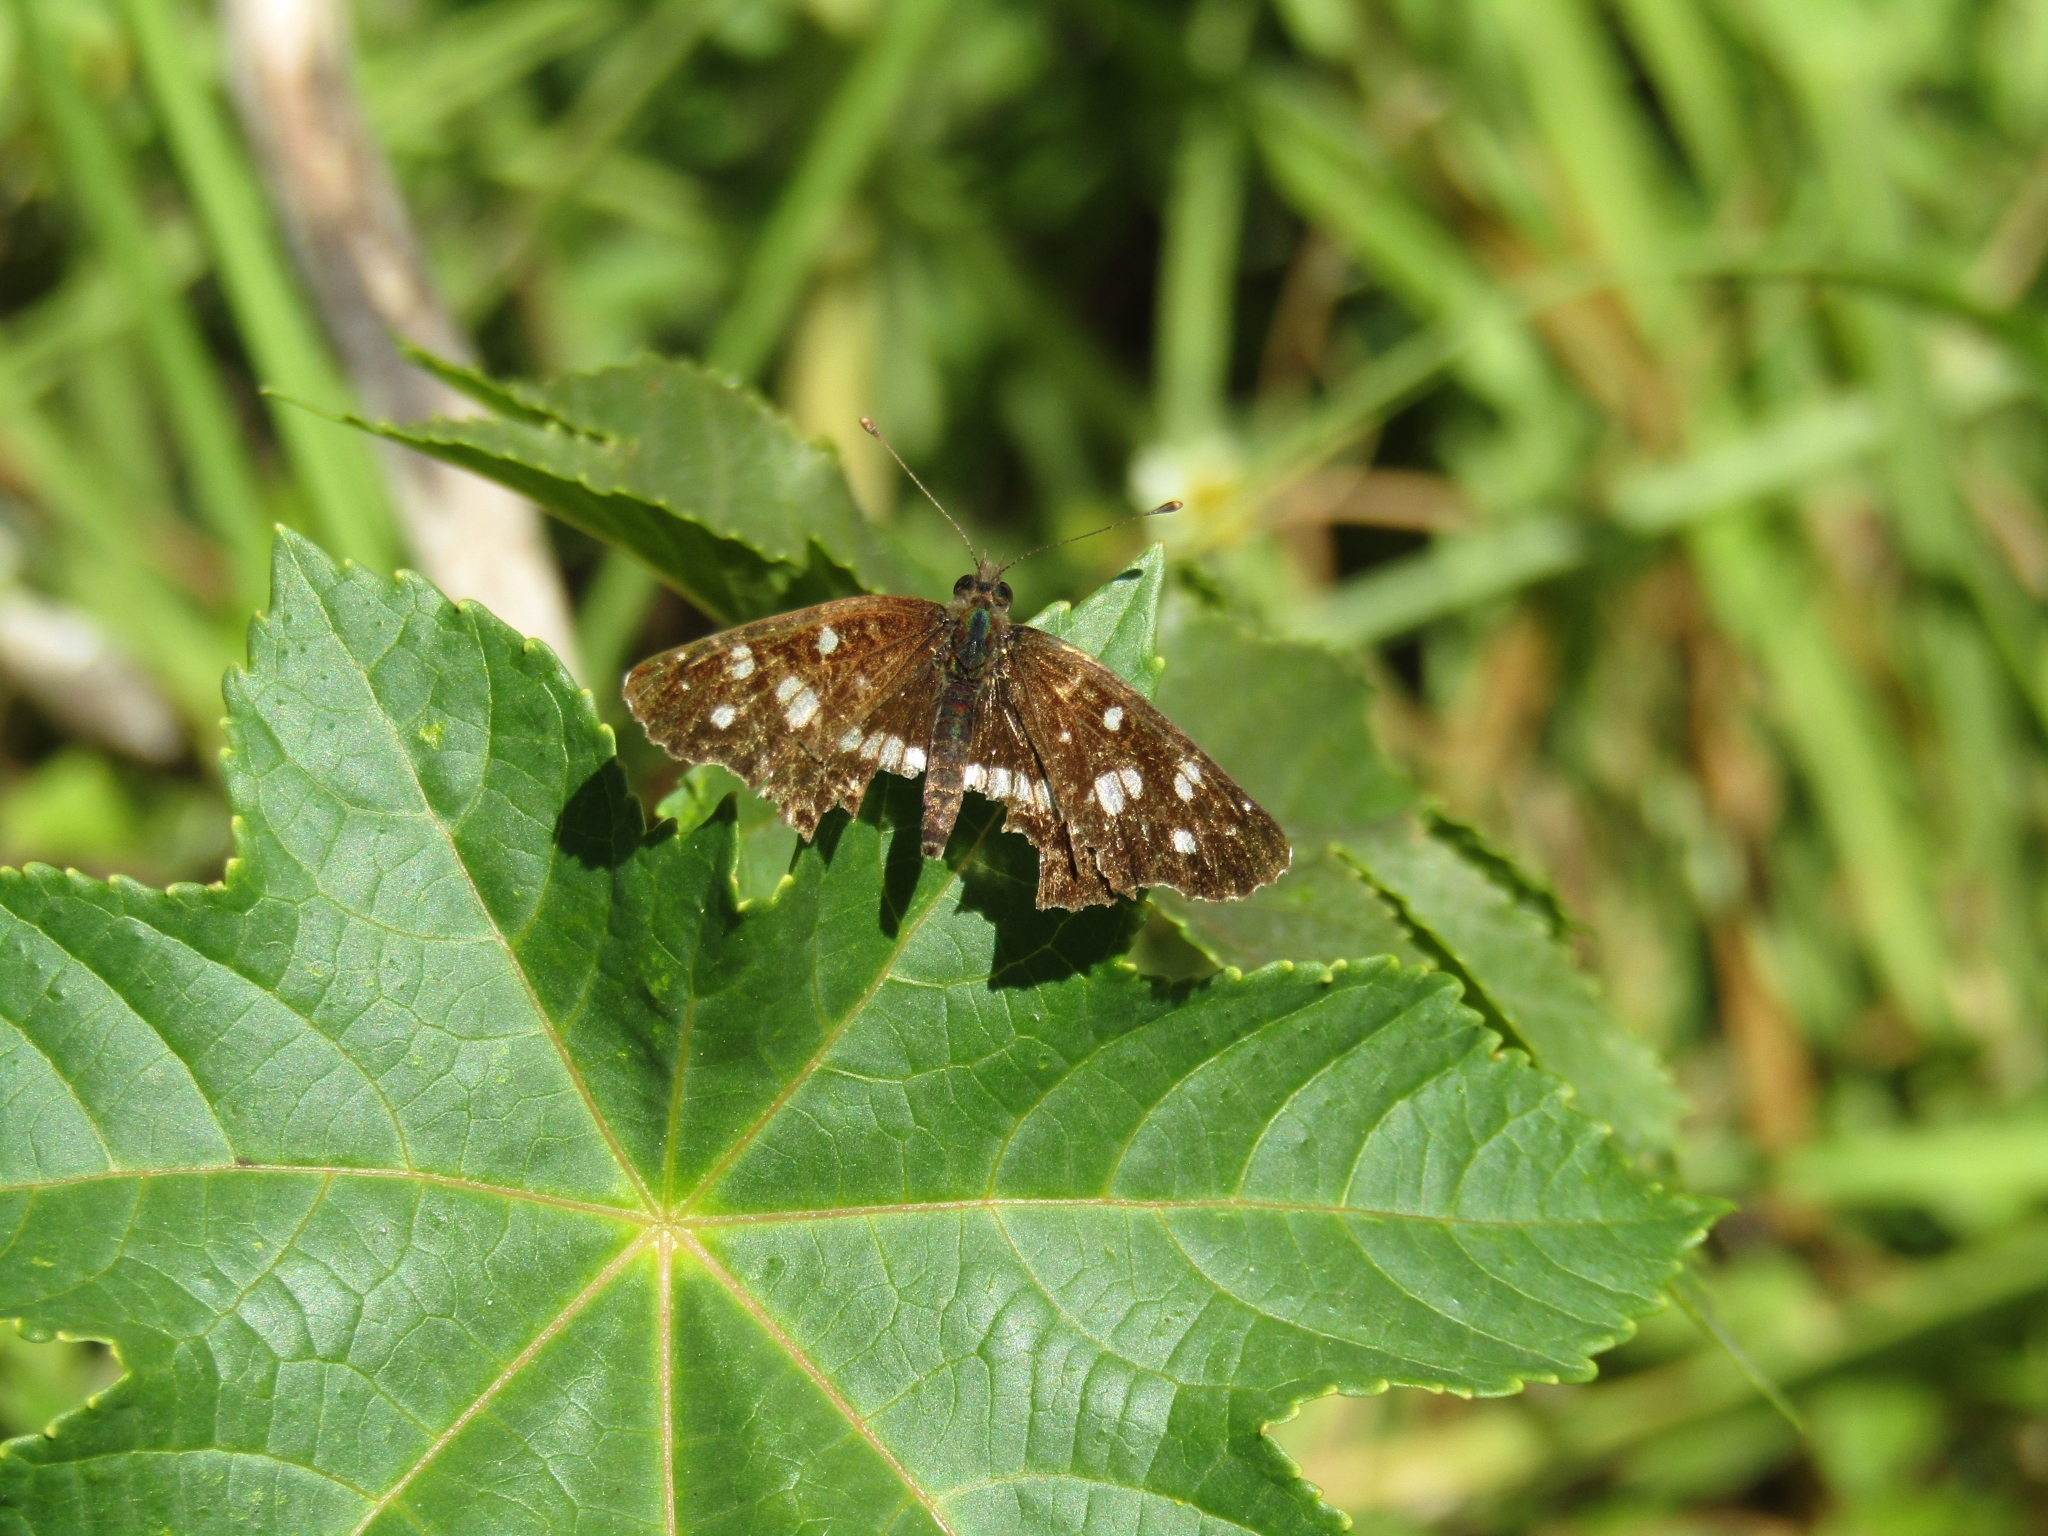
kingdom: Animalia
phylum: Arthropoda
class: Insecta
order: Lepidoptera
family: Nymphalidae
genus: Ortilia
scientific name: Ortilia ithra
